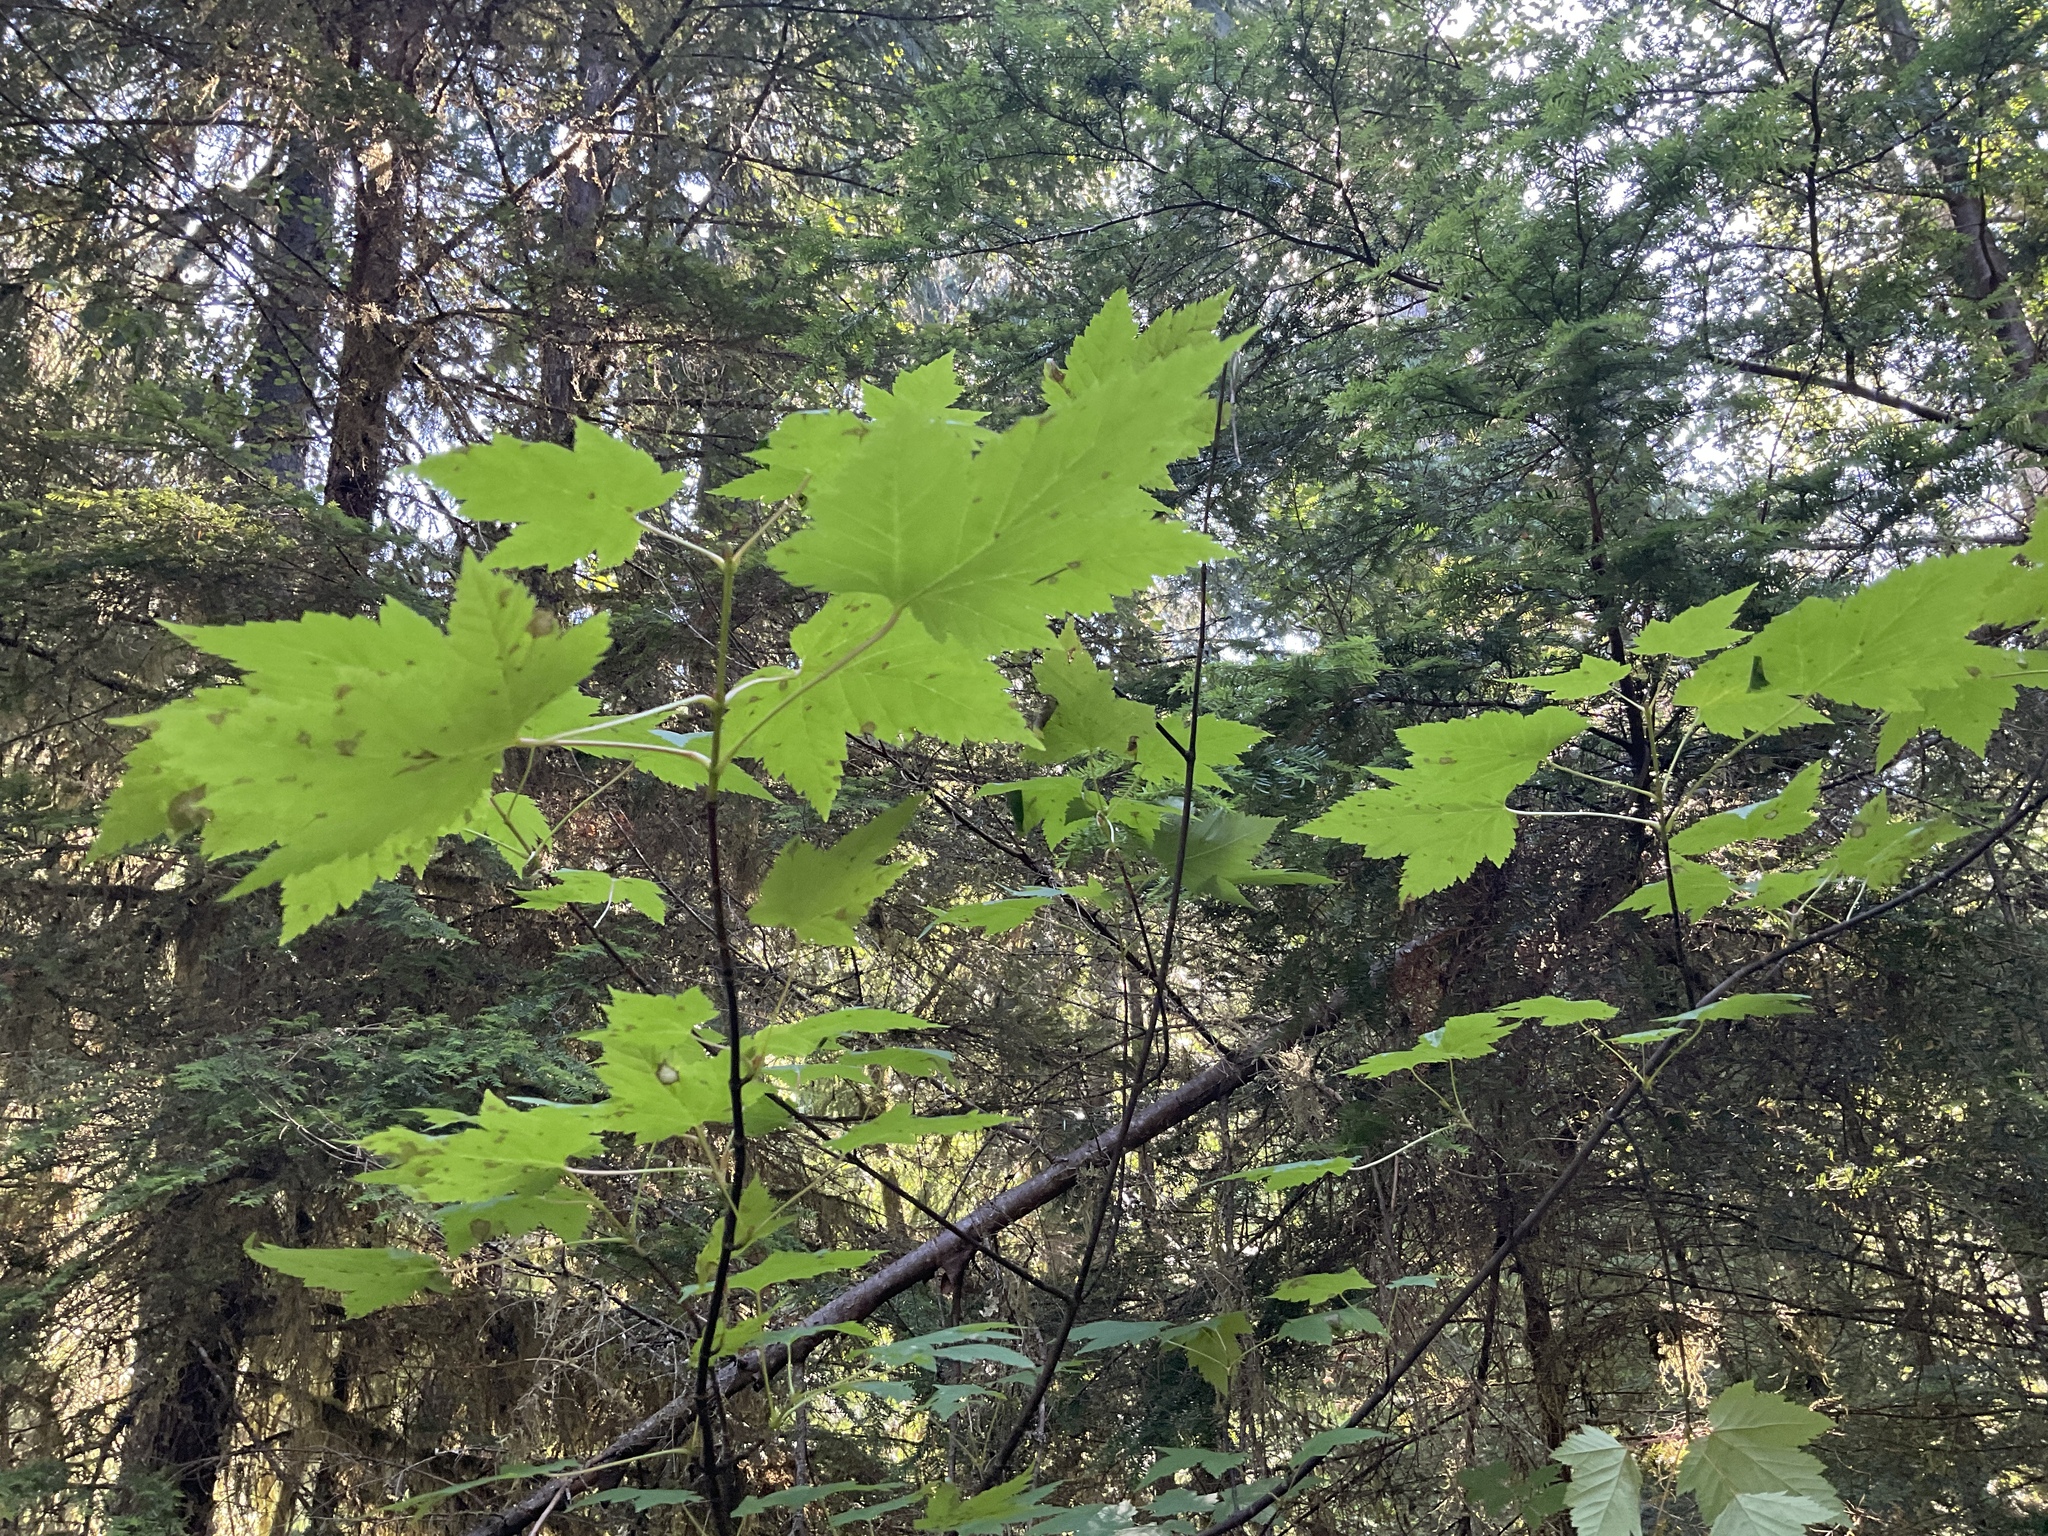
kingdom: Plantae
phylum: Tracheophyta
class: Magnoliopsida
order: Sapindales
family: Sapindaceae
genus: Acer
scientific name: Acer glabrum
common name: Rocky mountain maple
